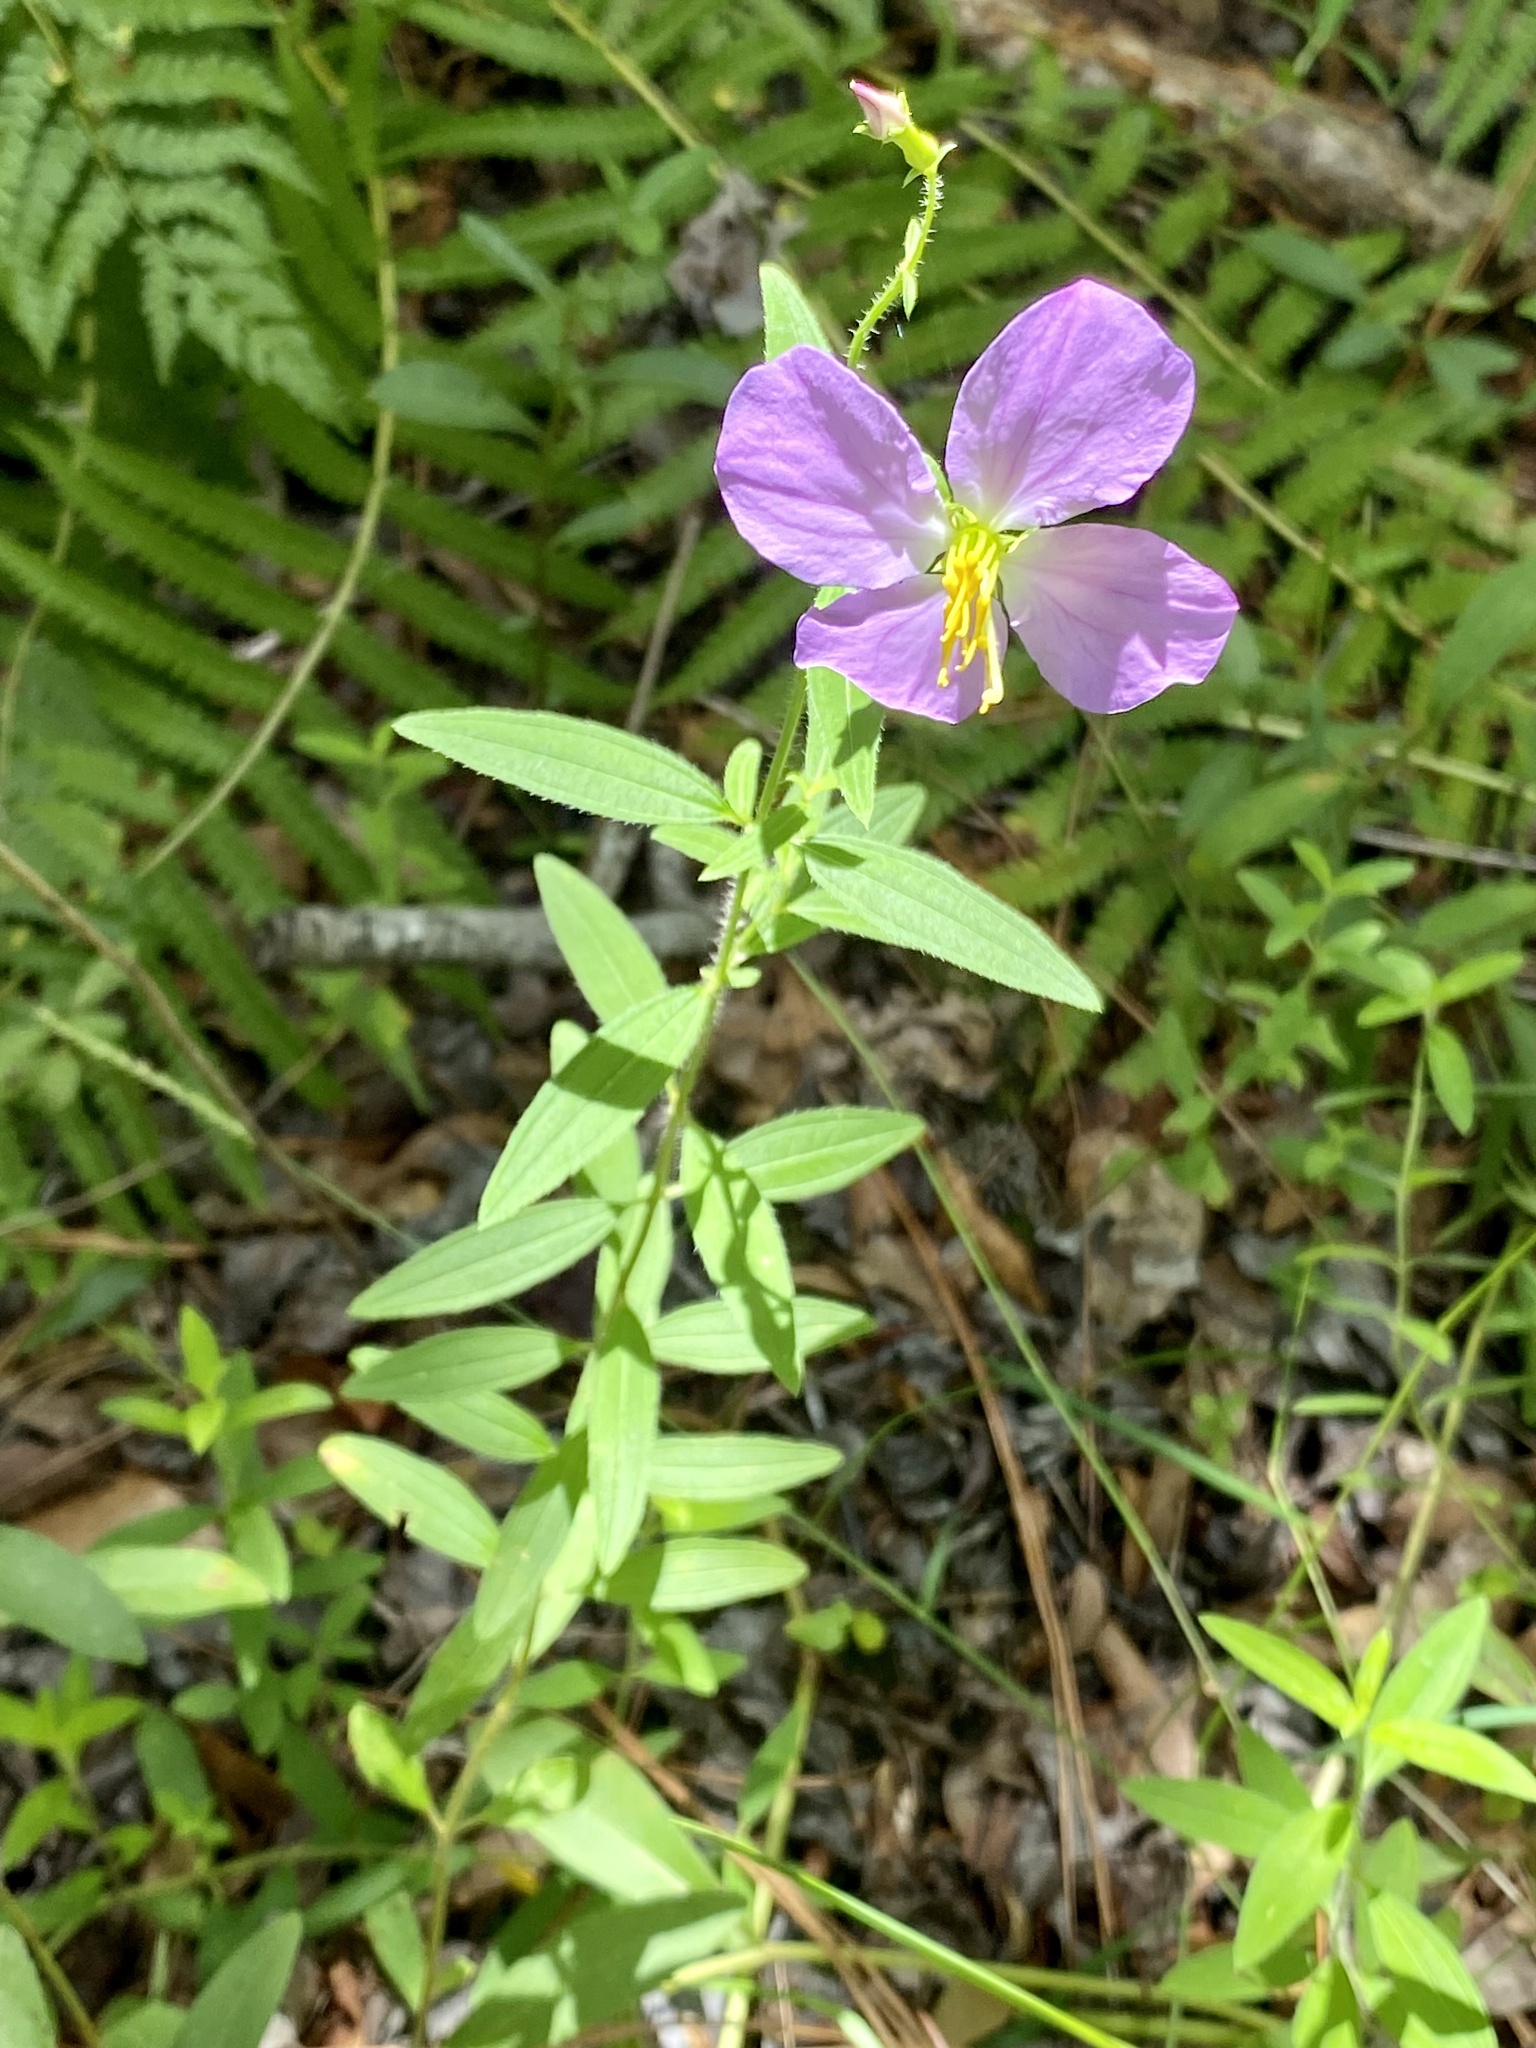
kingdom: Plantae
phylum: Tracheophyta
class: Magnoliopsida
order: Myrtales
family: Melastomataceae
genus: Rhexia
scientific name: Rhexia nashii
